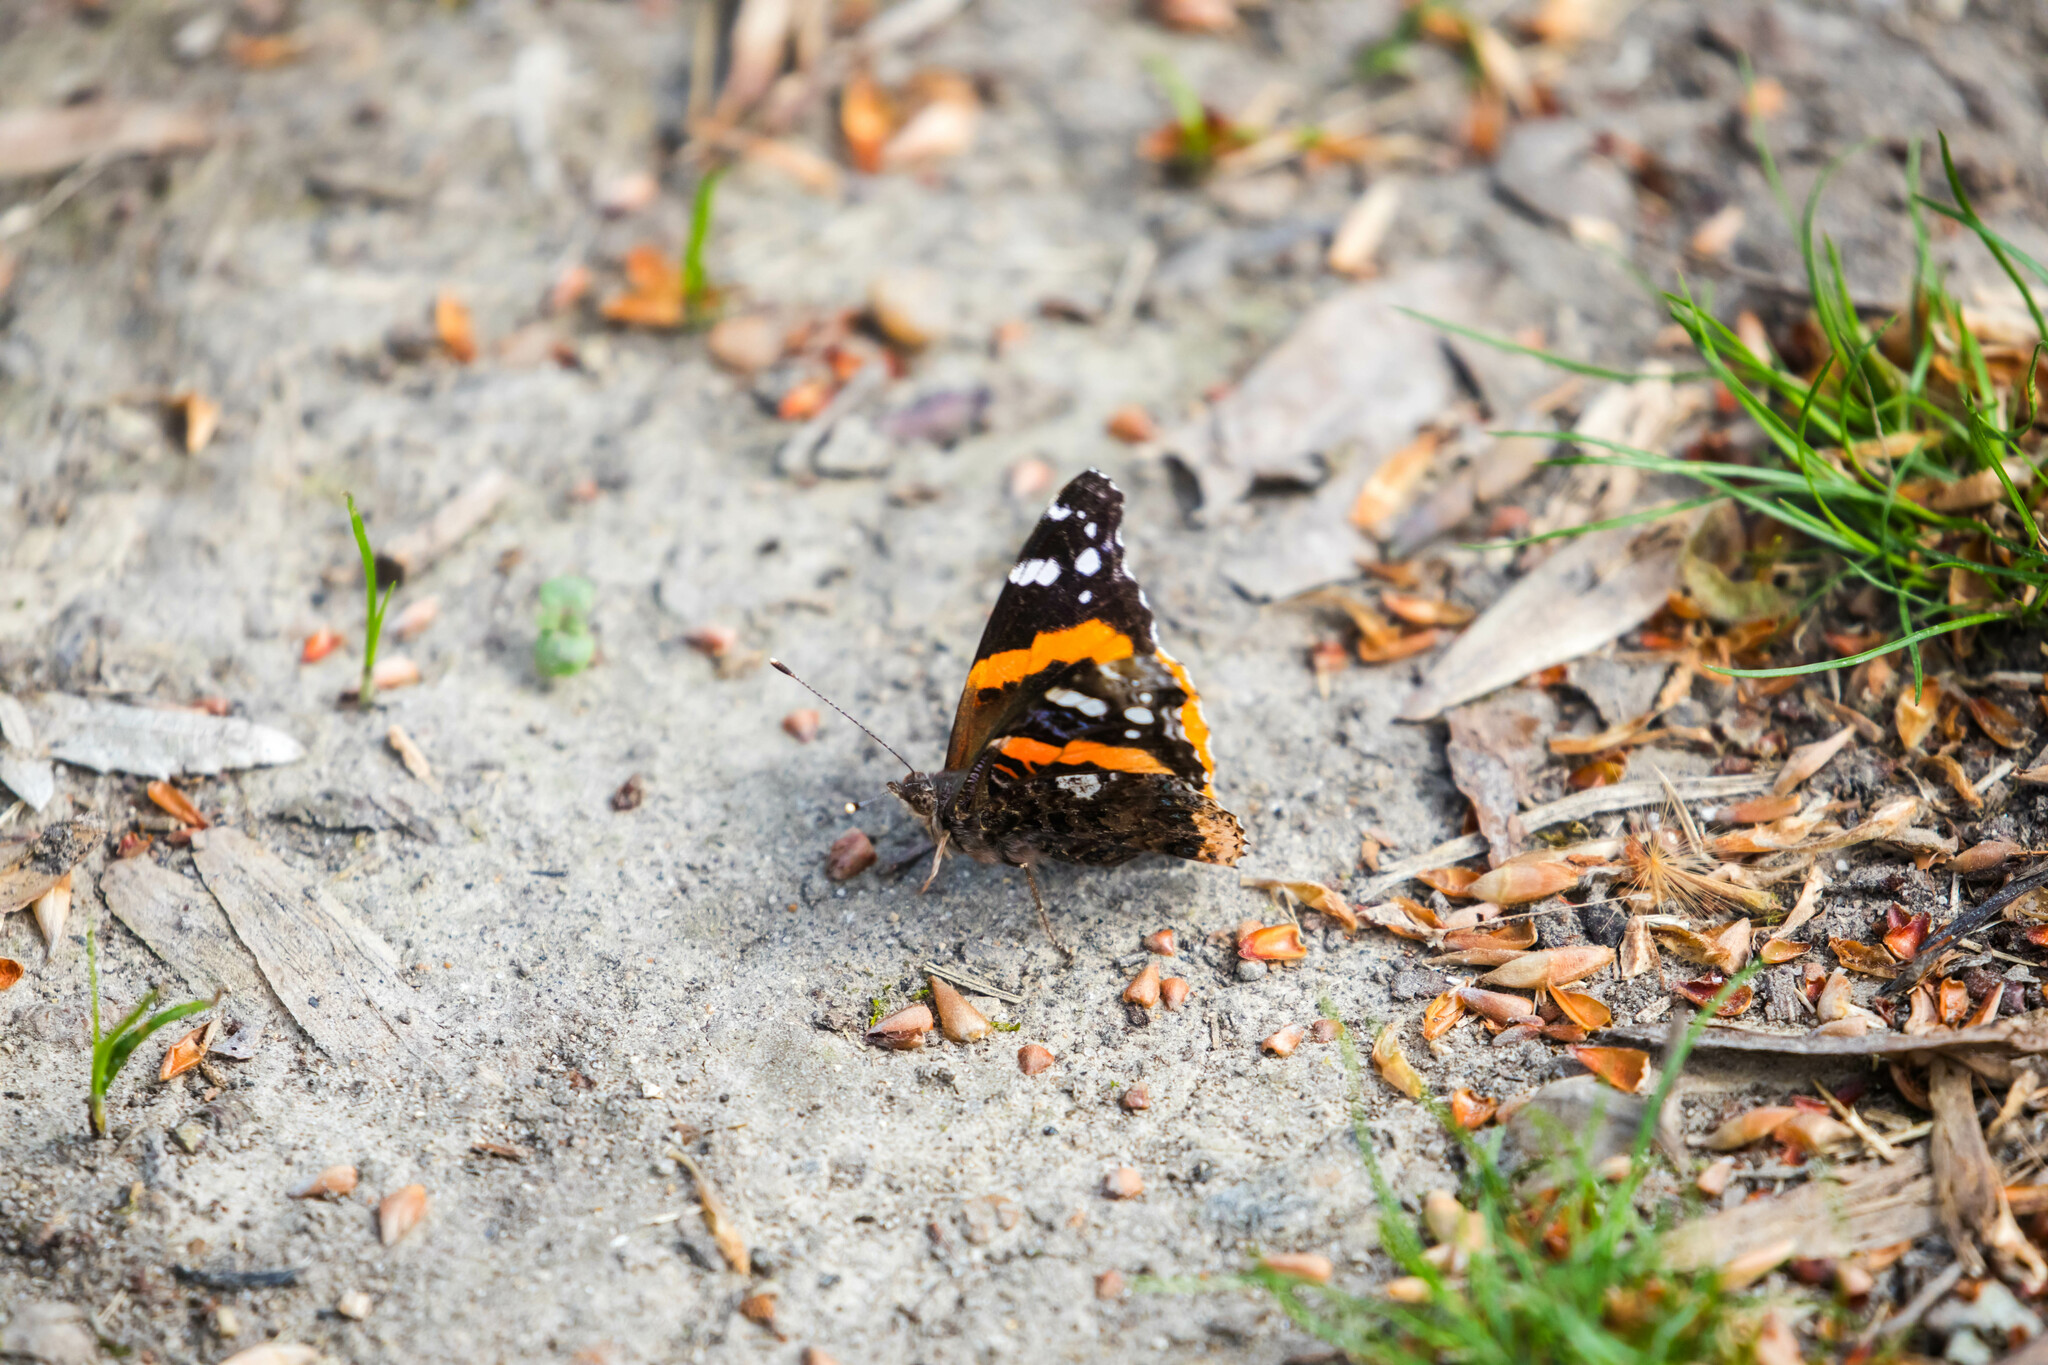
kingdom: Animalia
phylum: Arthropoda
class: Insecta
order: Lepidoptera
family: Nymphalidae
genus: Vanessa
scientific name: Vanessa atalanta
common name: Red admiral
